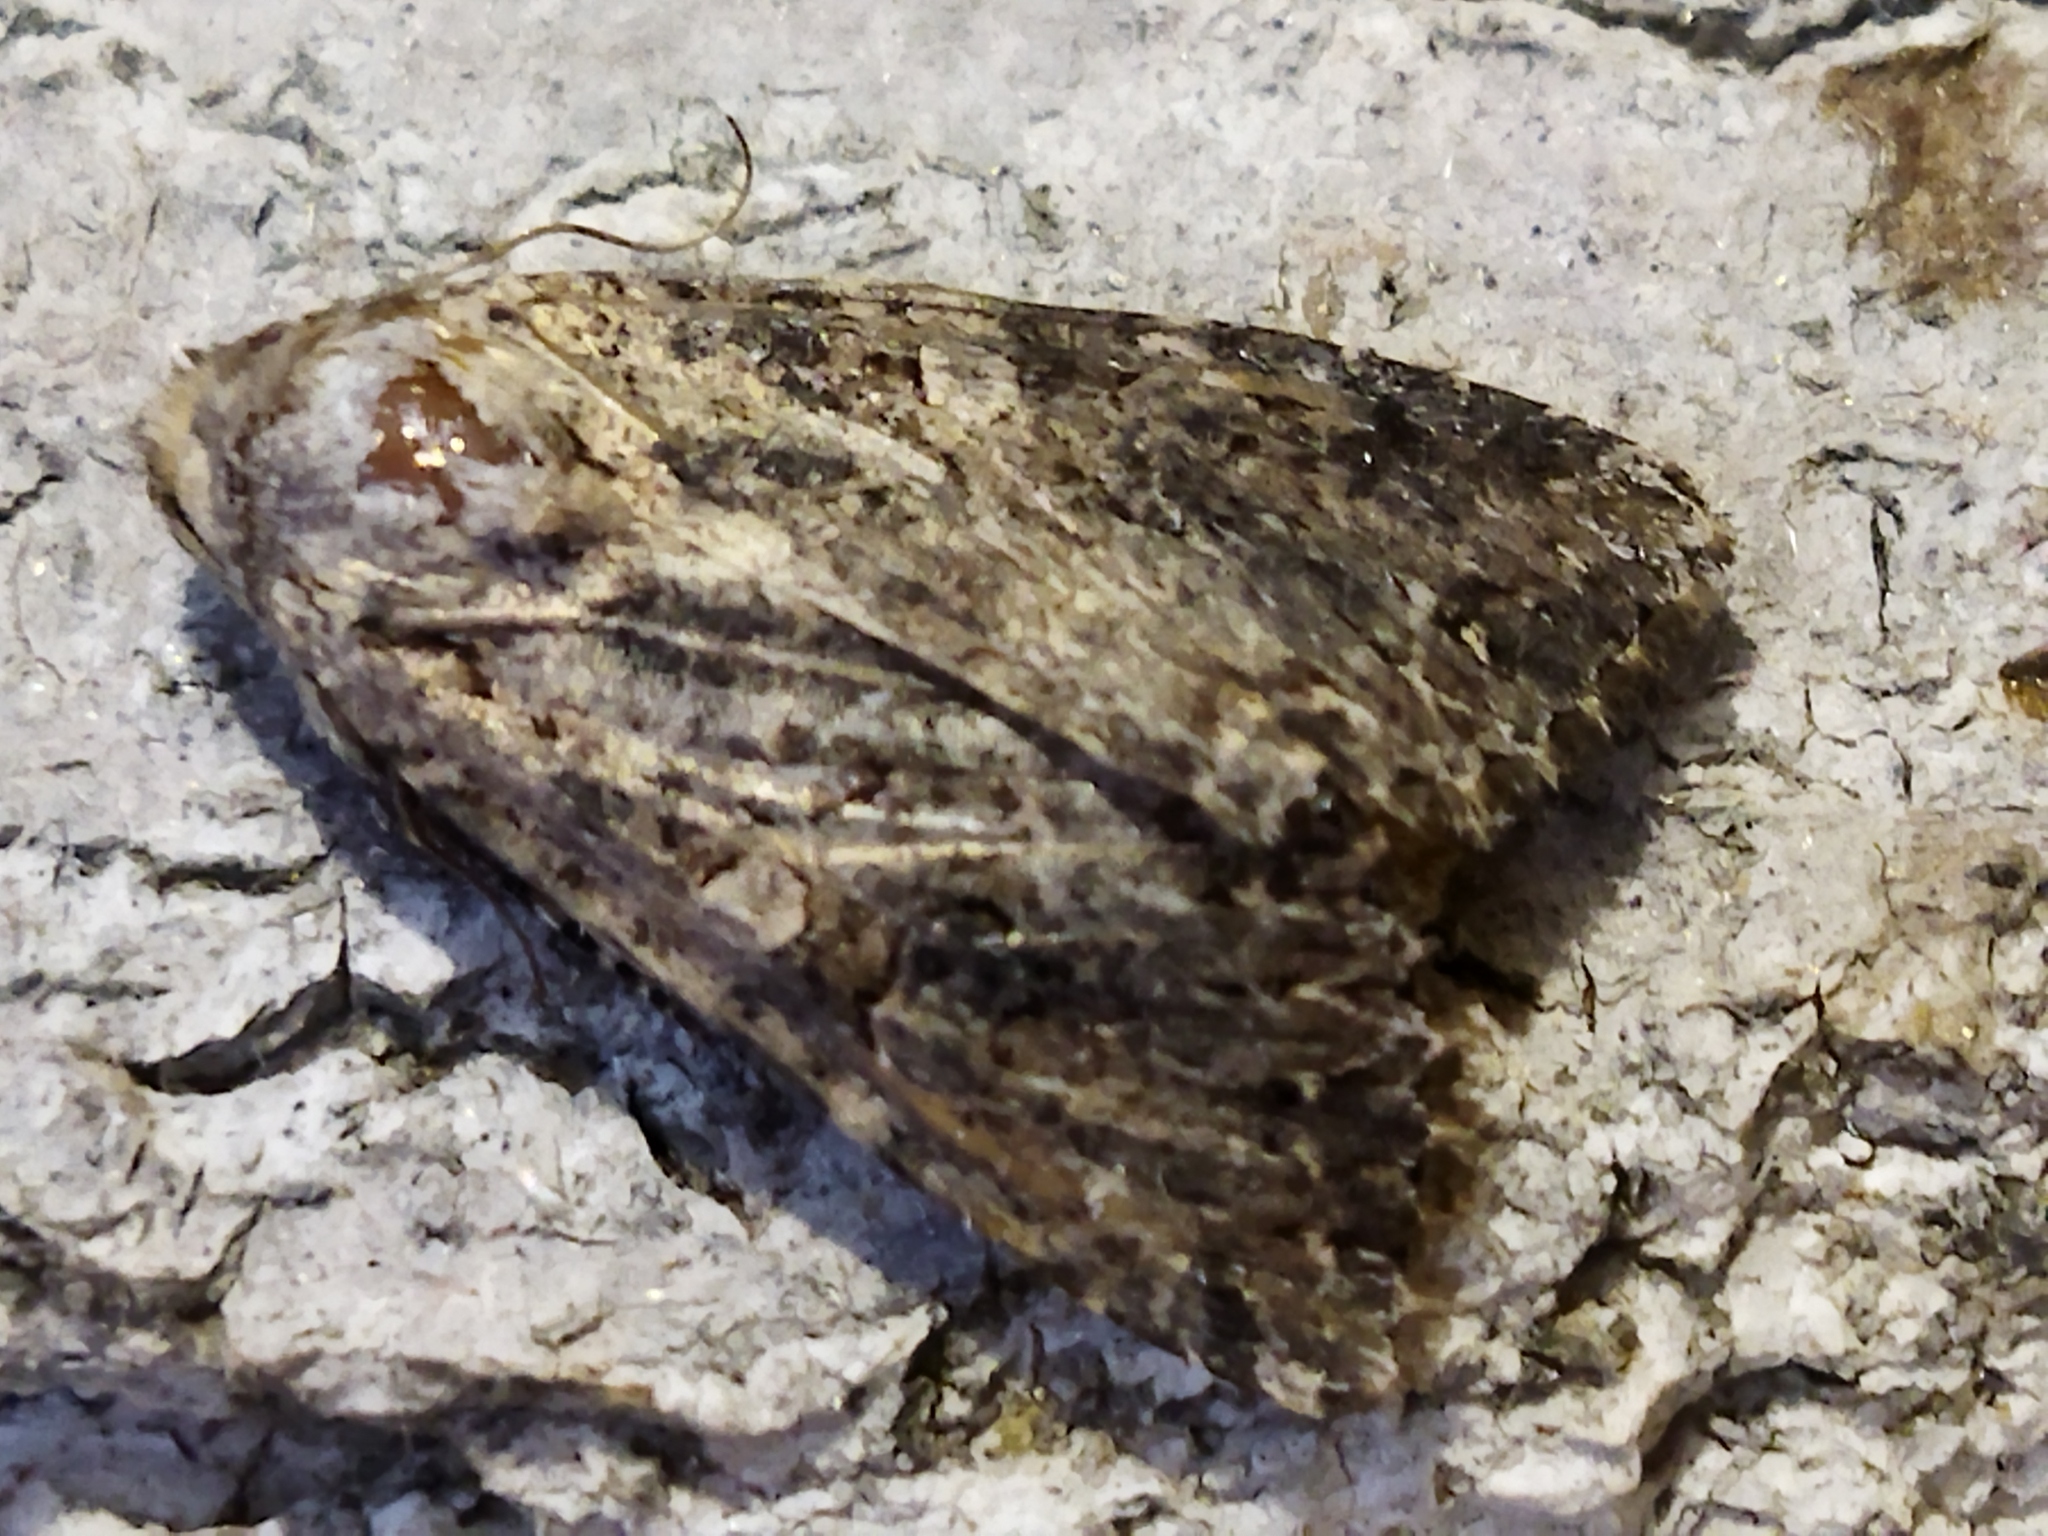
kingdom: Animalia
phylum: Arthropoda
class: Insecta
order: Lepidoptera
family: Noctuidae
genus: Anarta
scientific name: Anarta trifolii
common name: Clover cutworm moth
